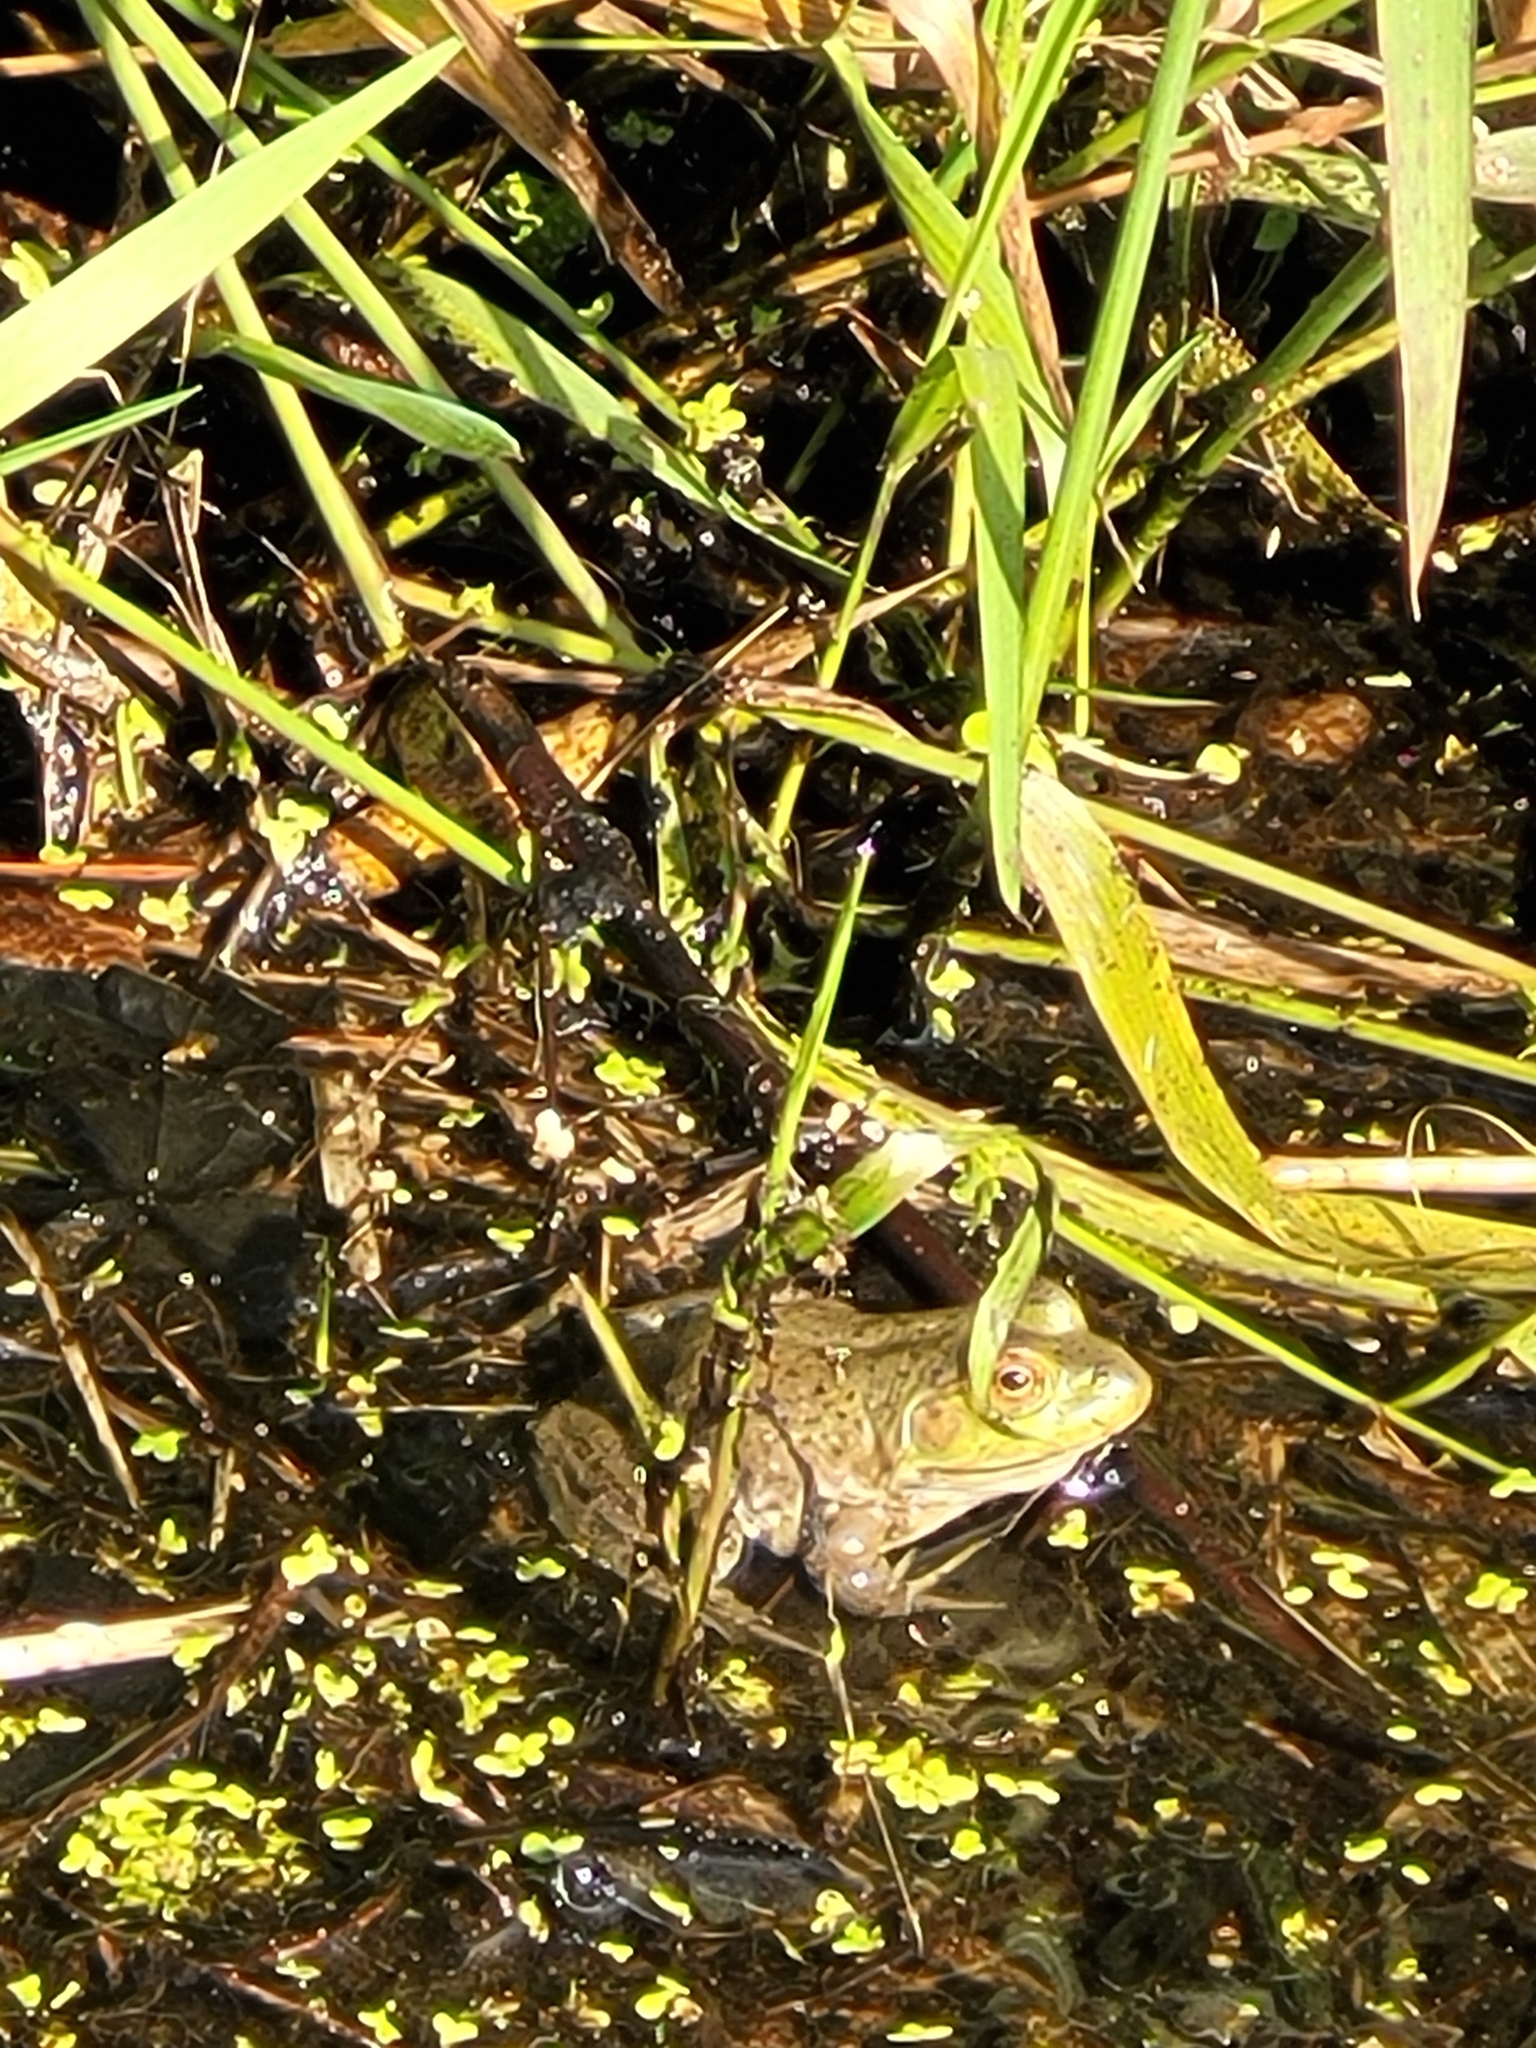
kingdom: Animalia
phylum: Chordata
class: Amphibia
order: Anura
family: Ranidae
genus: Lithobates
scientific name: Lithobates catesbeianus
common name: American bullfrog
